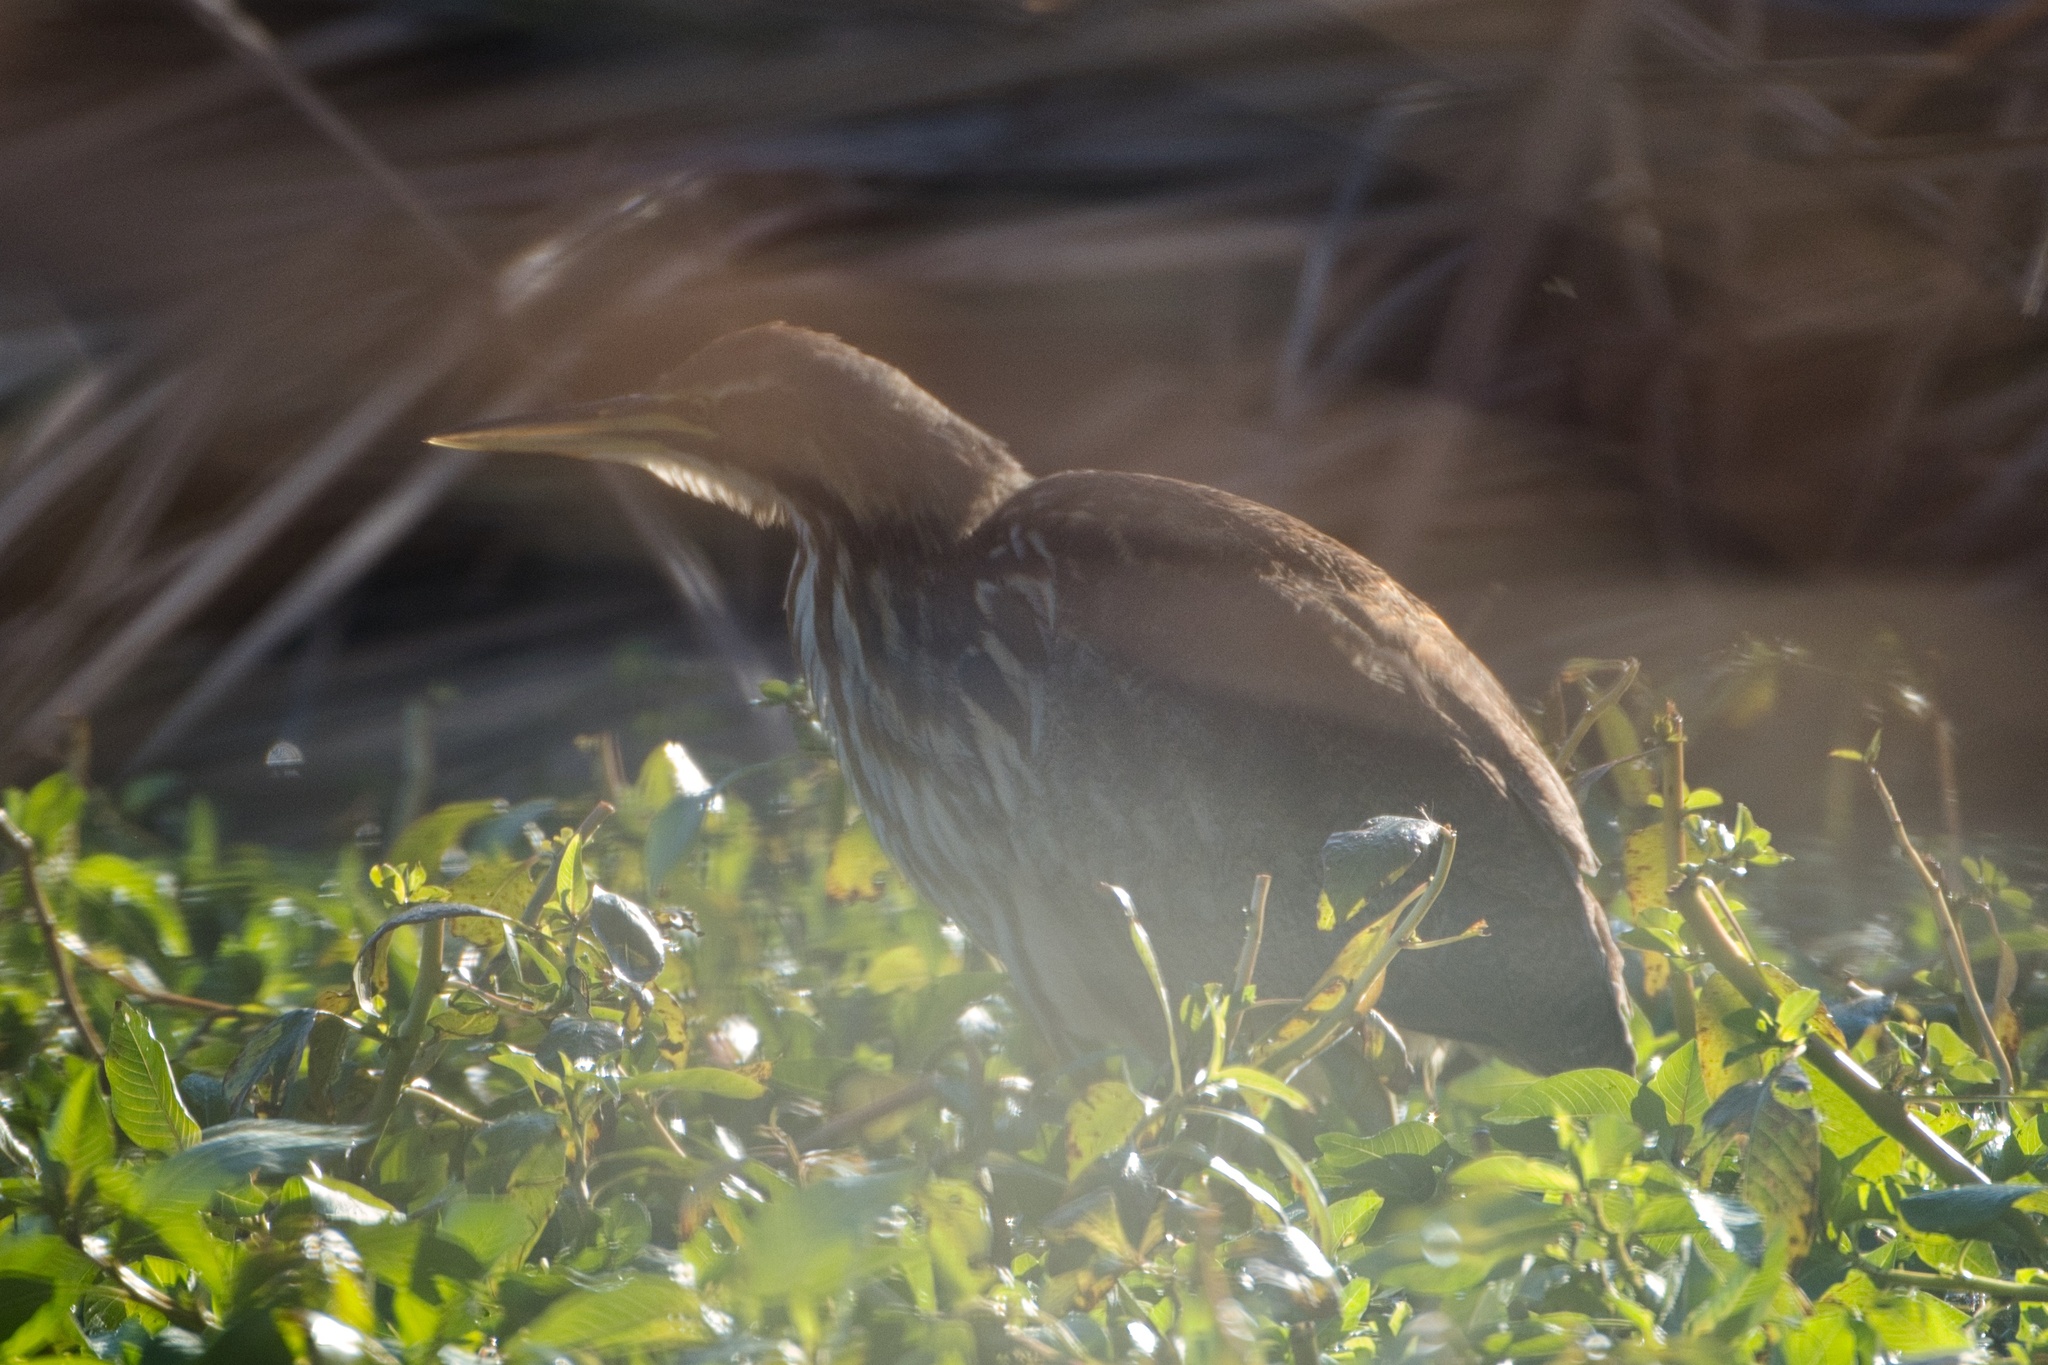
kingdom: Animalia
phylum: Chordata
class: Aves
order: Pelecaniformes
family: Ardeidae
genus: Botaurus
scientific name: Botaurus lentiginosus
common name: American bittern
